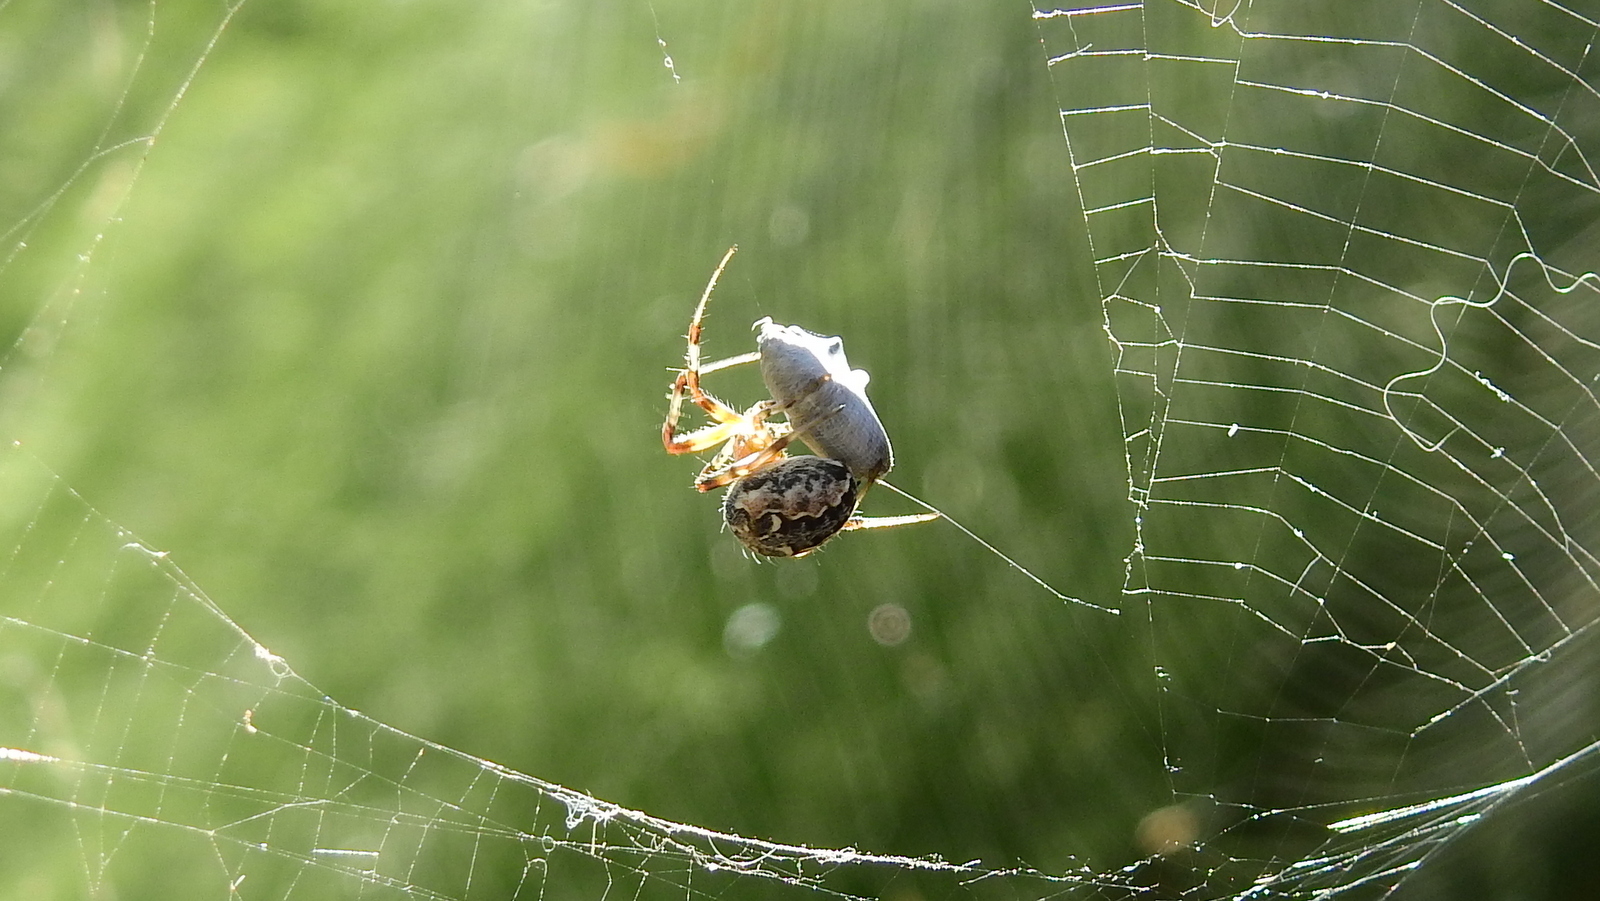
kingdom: Animalia
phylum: Arthropoda
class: Arachnida
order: Araneae
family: Araneidae
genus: Metepeira
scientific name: Metepeira
